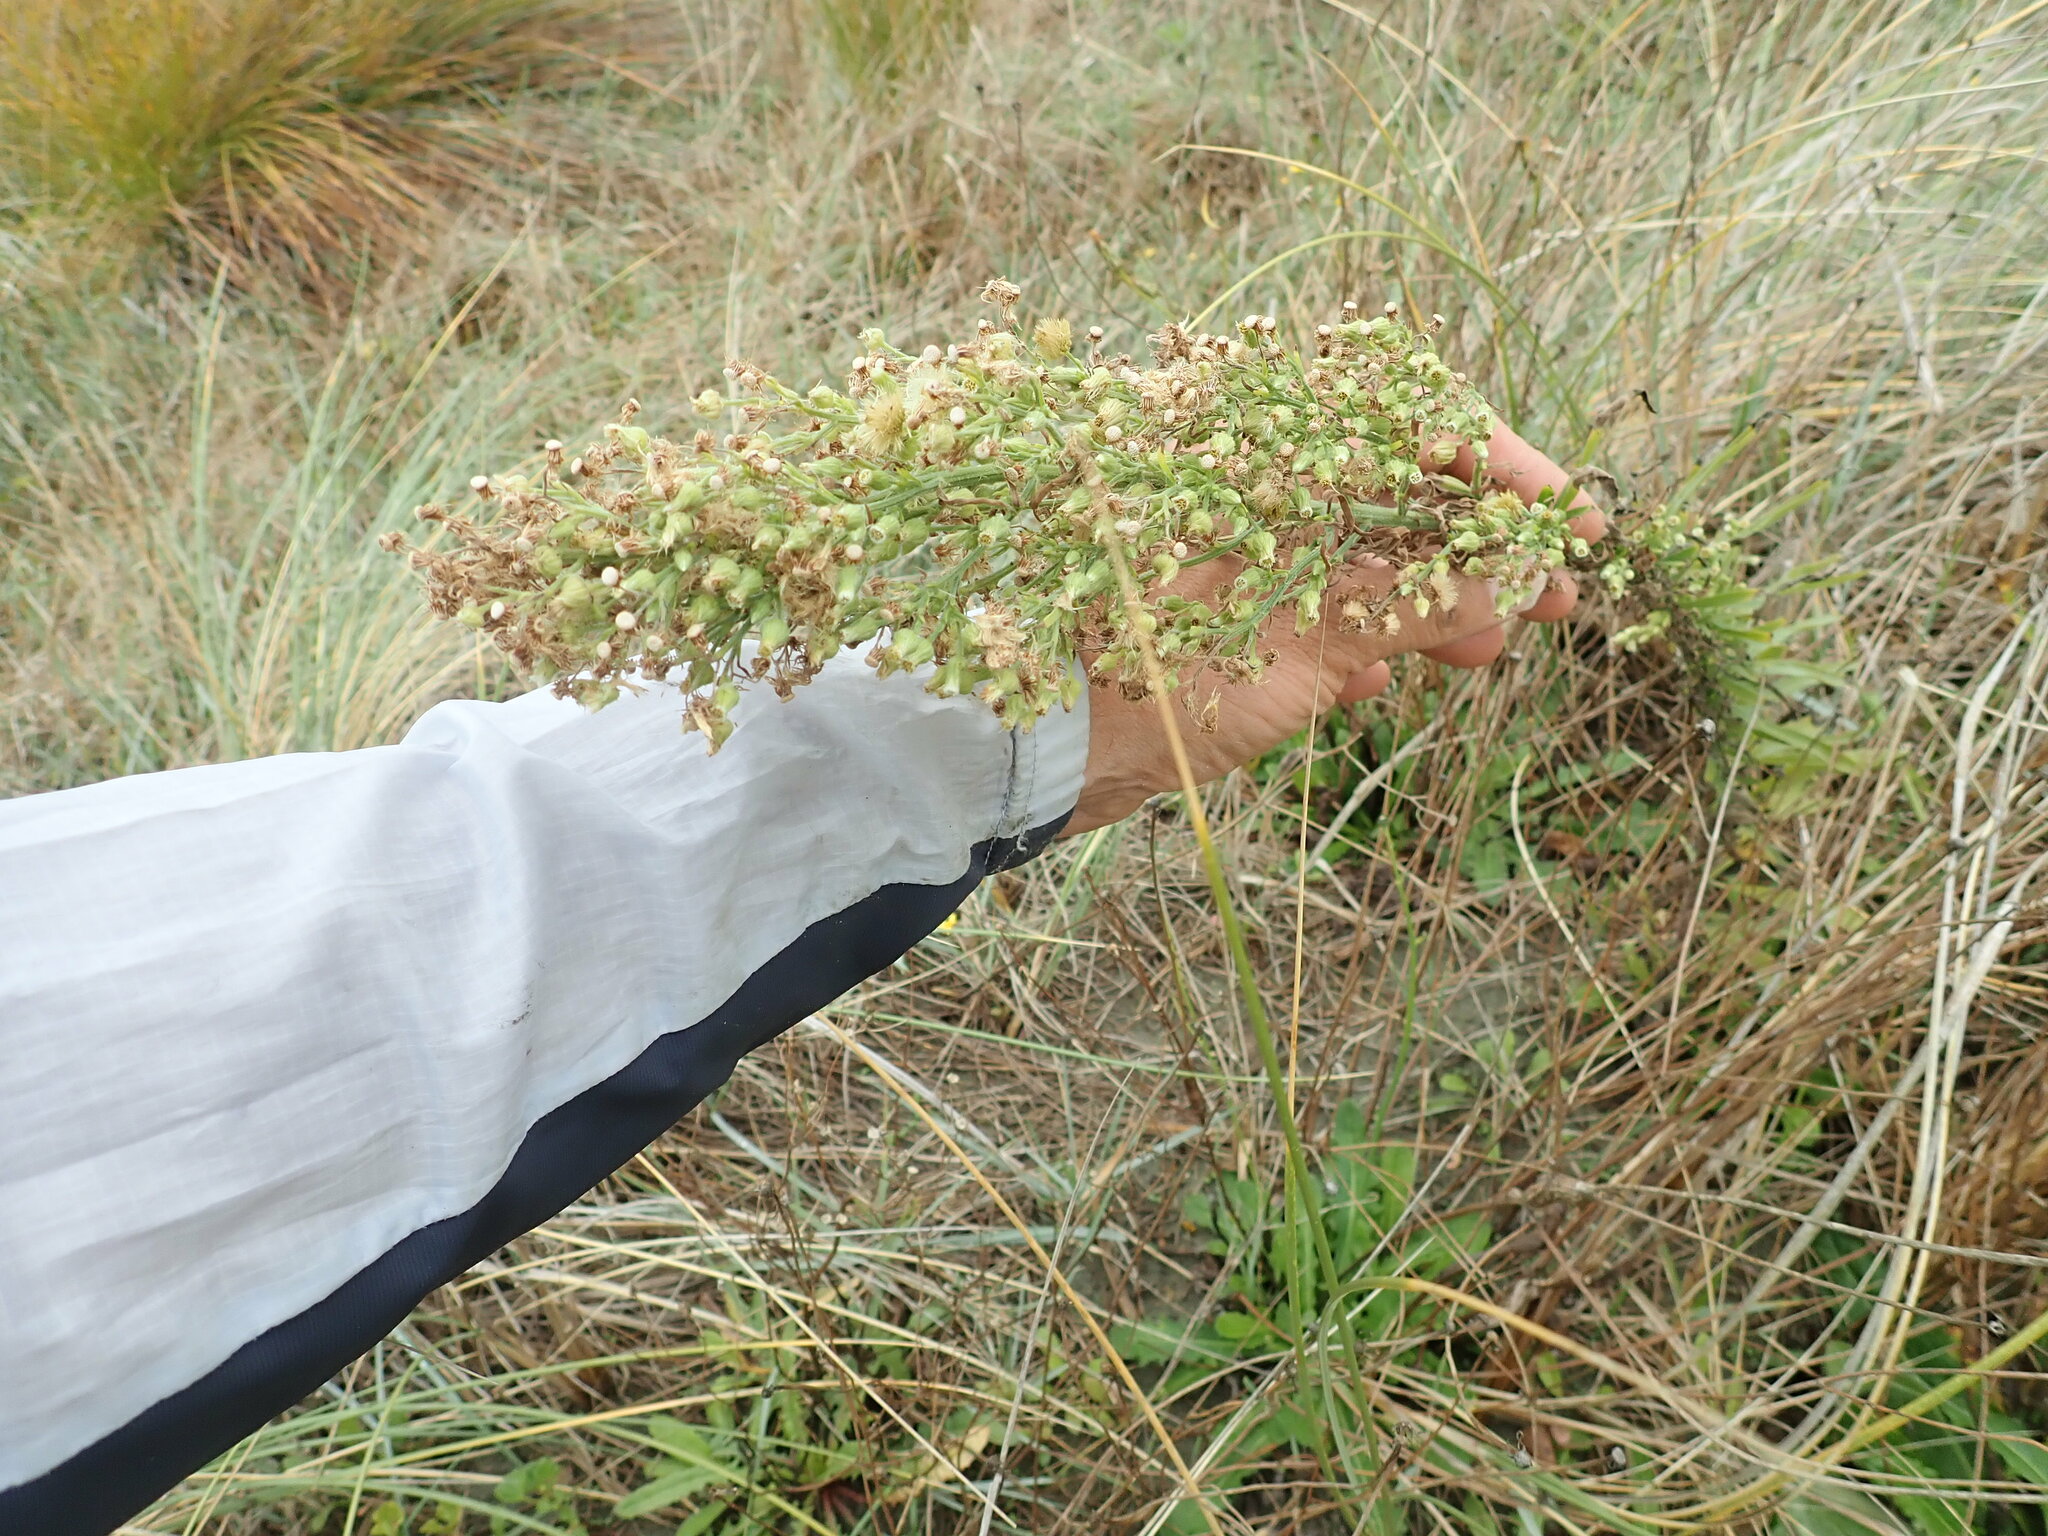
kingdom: Plantae
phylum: Tracheophyta
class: Magnoliopsida
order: Asterales
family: Asteraceae
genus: Erigeron
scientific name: Erigeron sumatrensis
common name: Daisy
